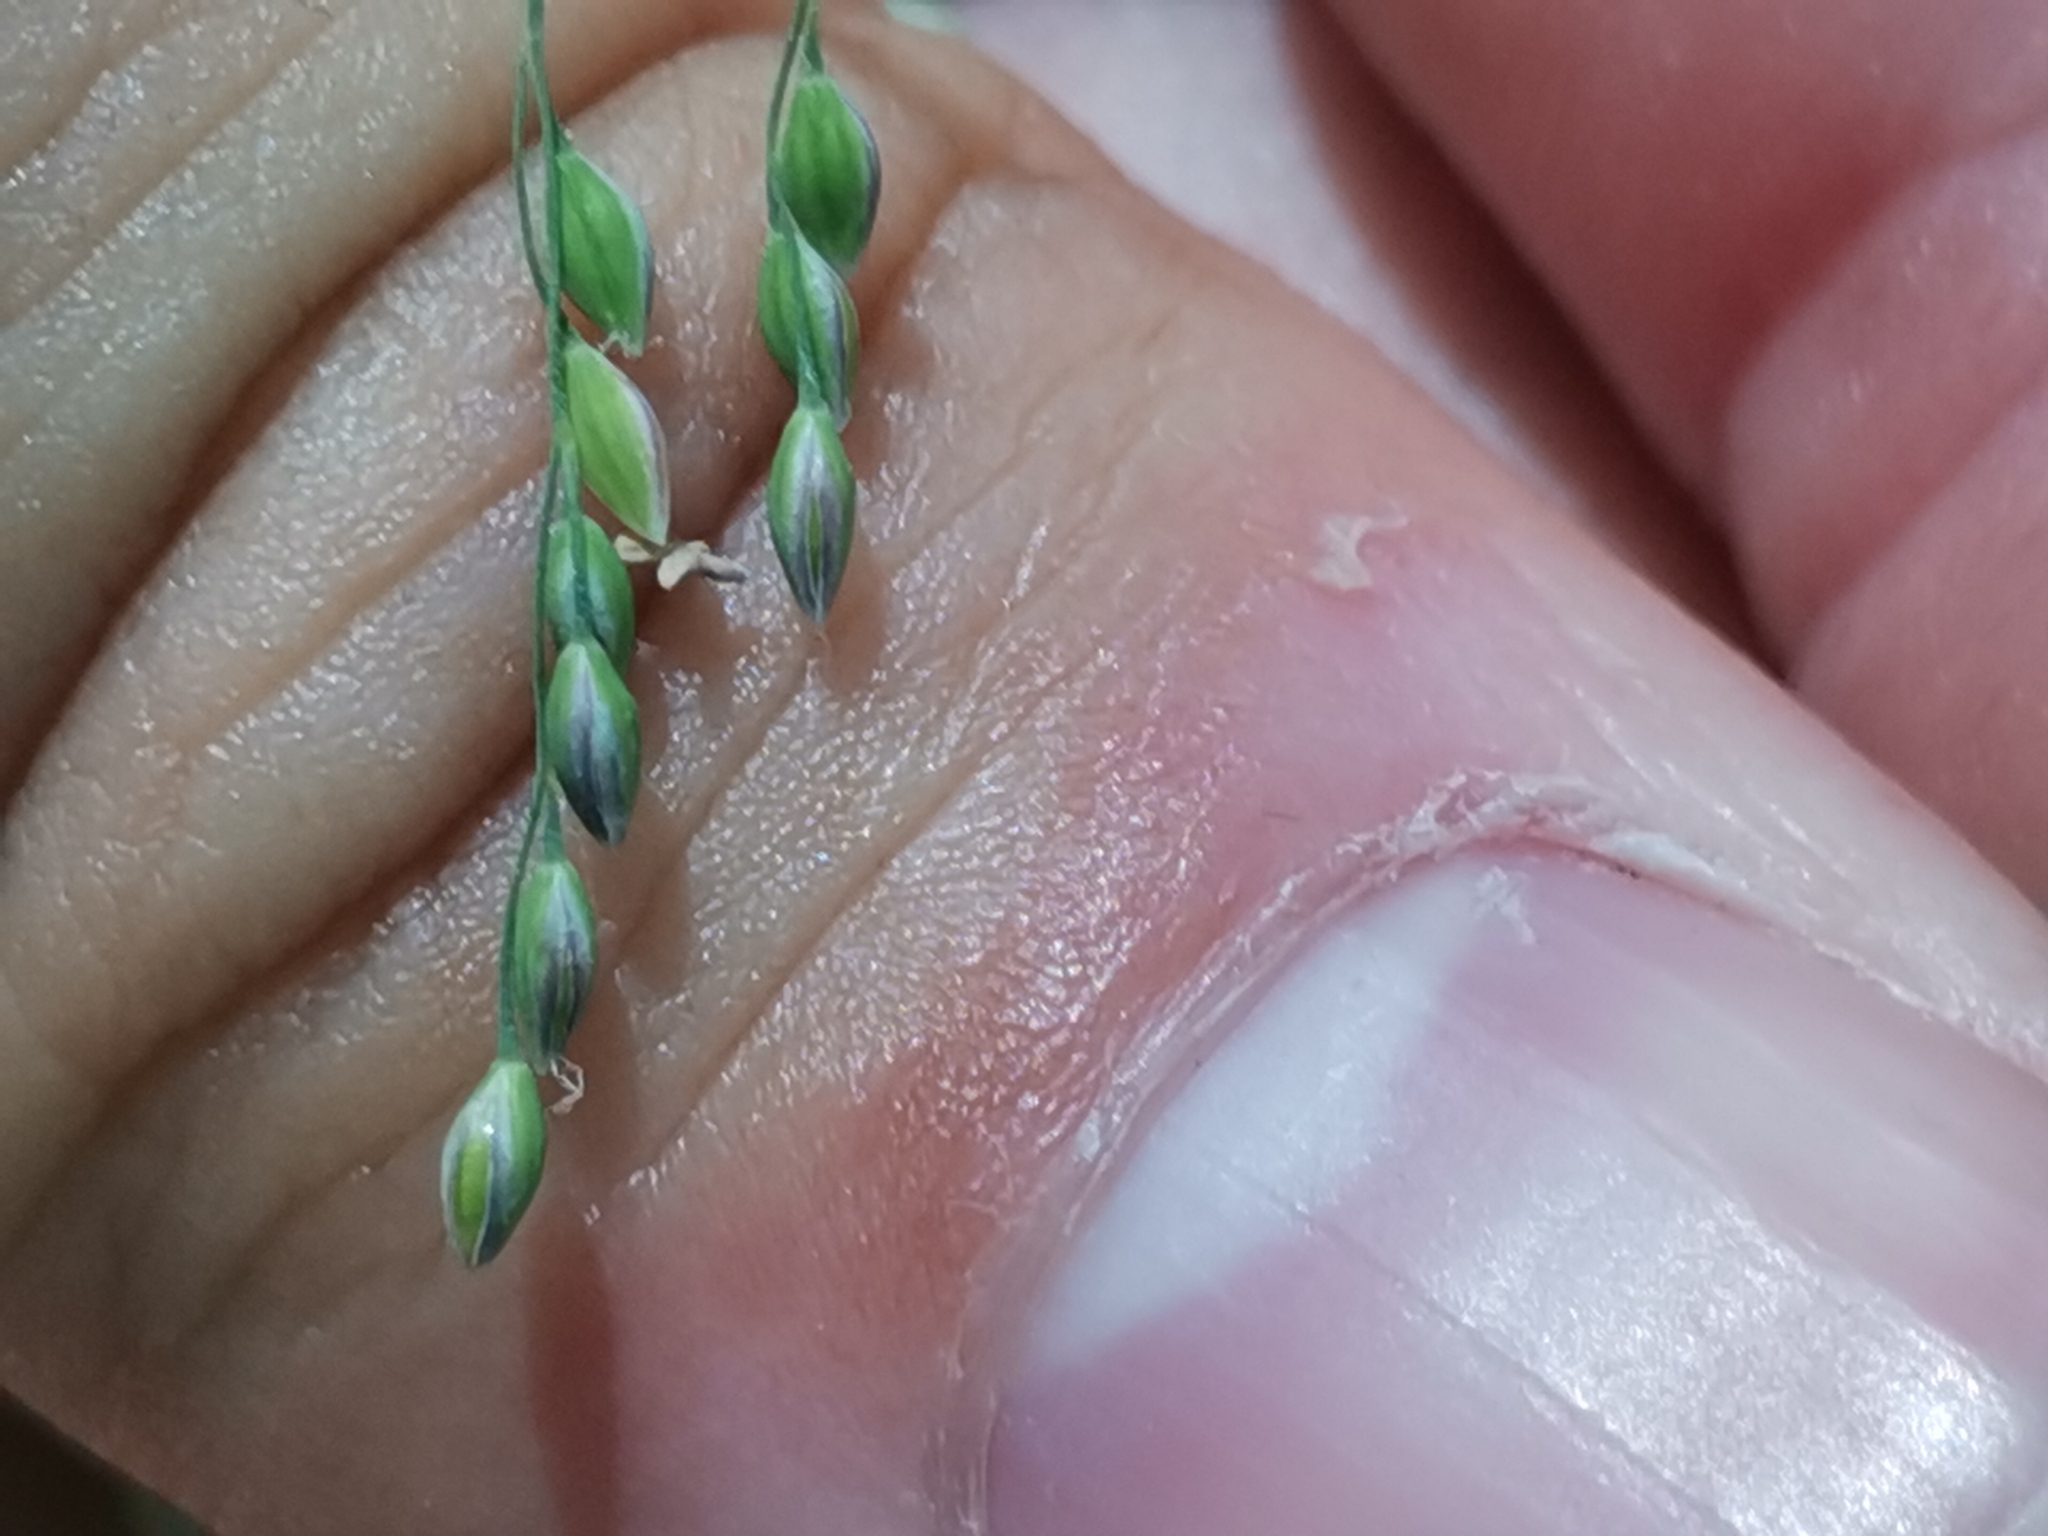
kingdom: Plantae
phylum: Tracheophyta
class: Liliopsida
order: Poales
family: Poaceae
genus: Milium
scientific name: Milium effusum
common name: Wood millet
